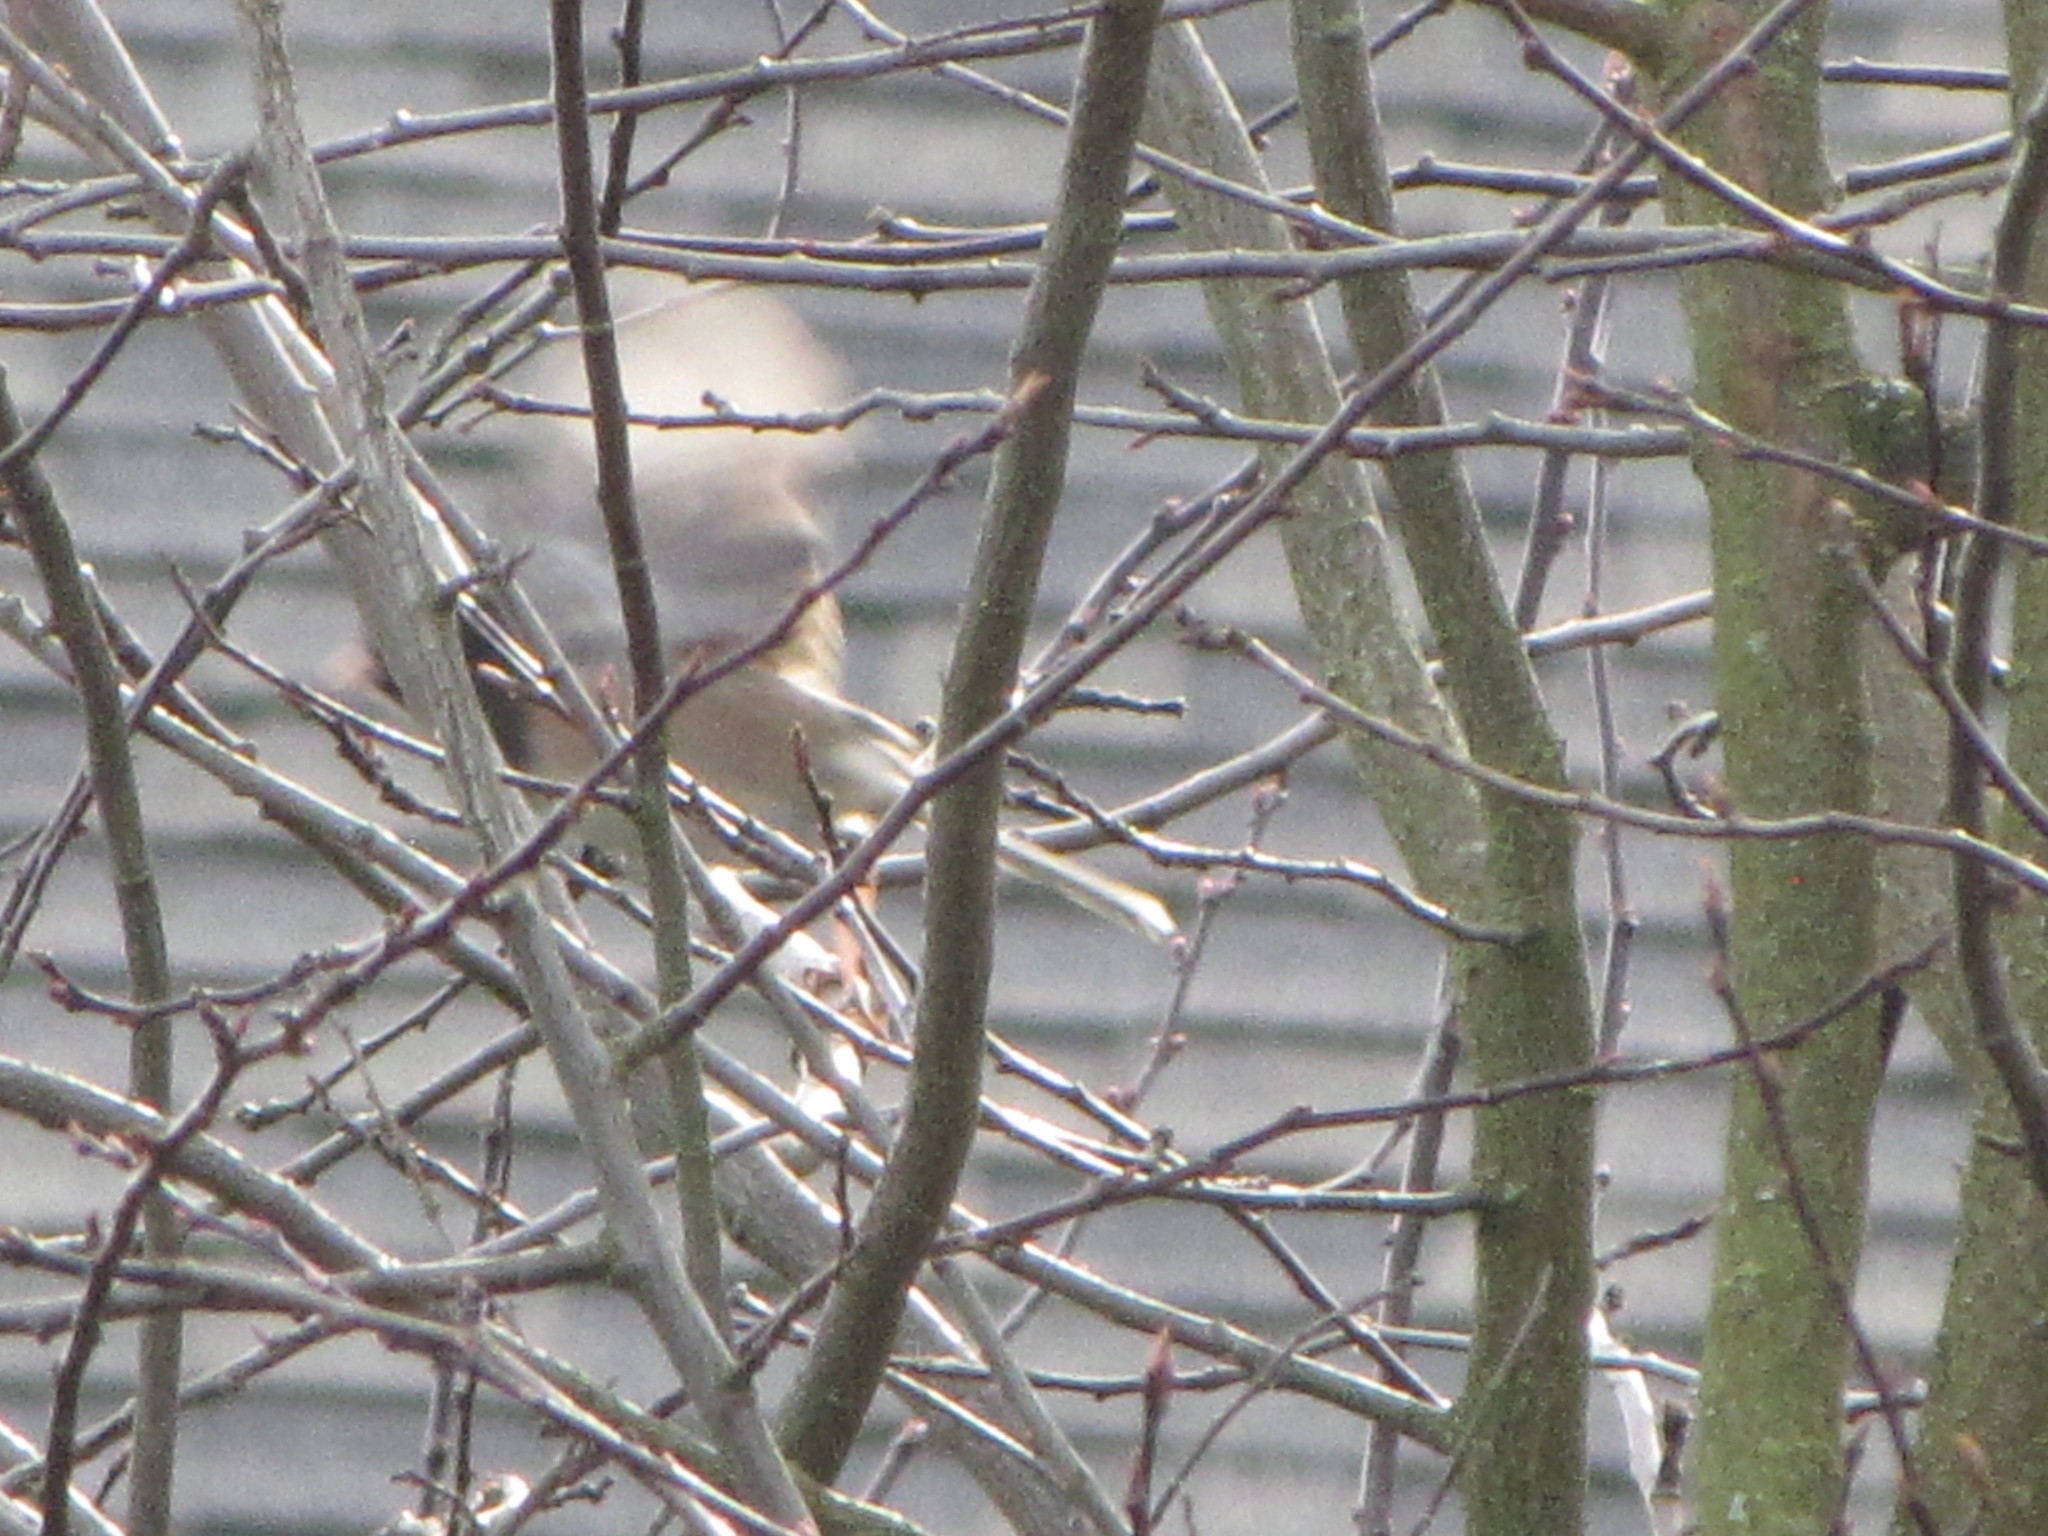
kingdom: Animalia
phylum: Chordata
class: Aves
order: Passeriformes
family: Passerellidae
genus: Junco
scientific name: Junco hyemalis
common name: Dark-eyed junco
